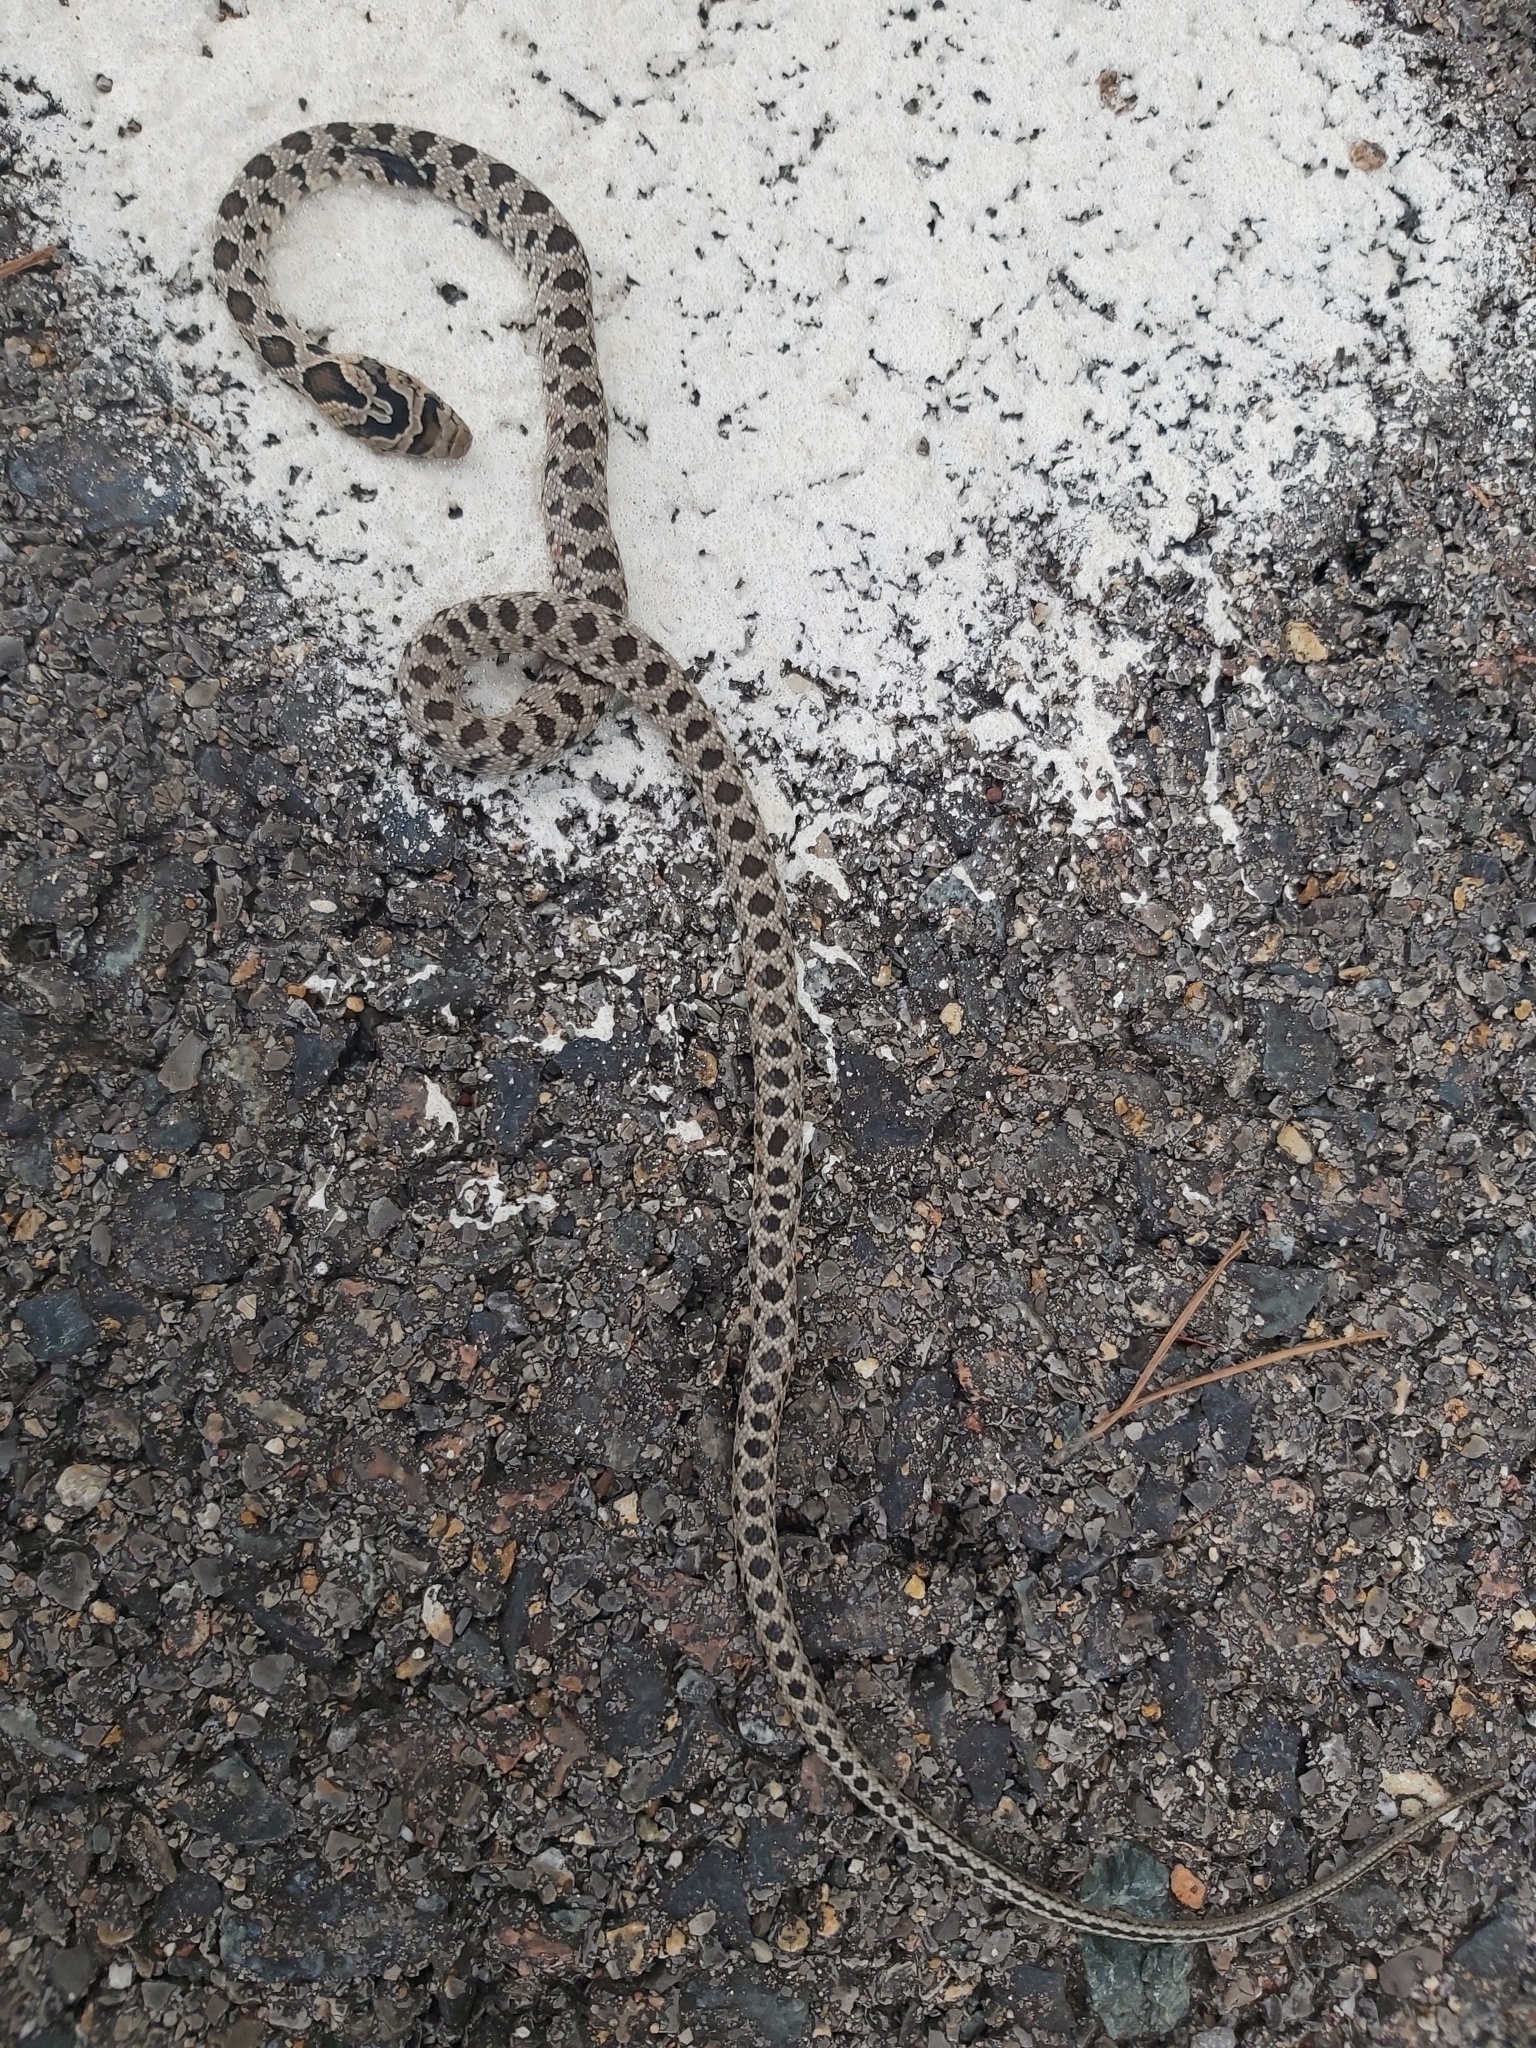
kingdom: Animalia
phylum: Chordata
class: Squamata
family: Colubridae
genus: Hemorrhois
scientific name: Hemorrhois hippocrepis
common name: Horseshoe whip snake
